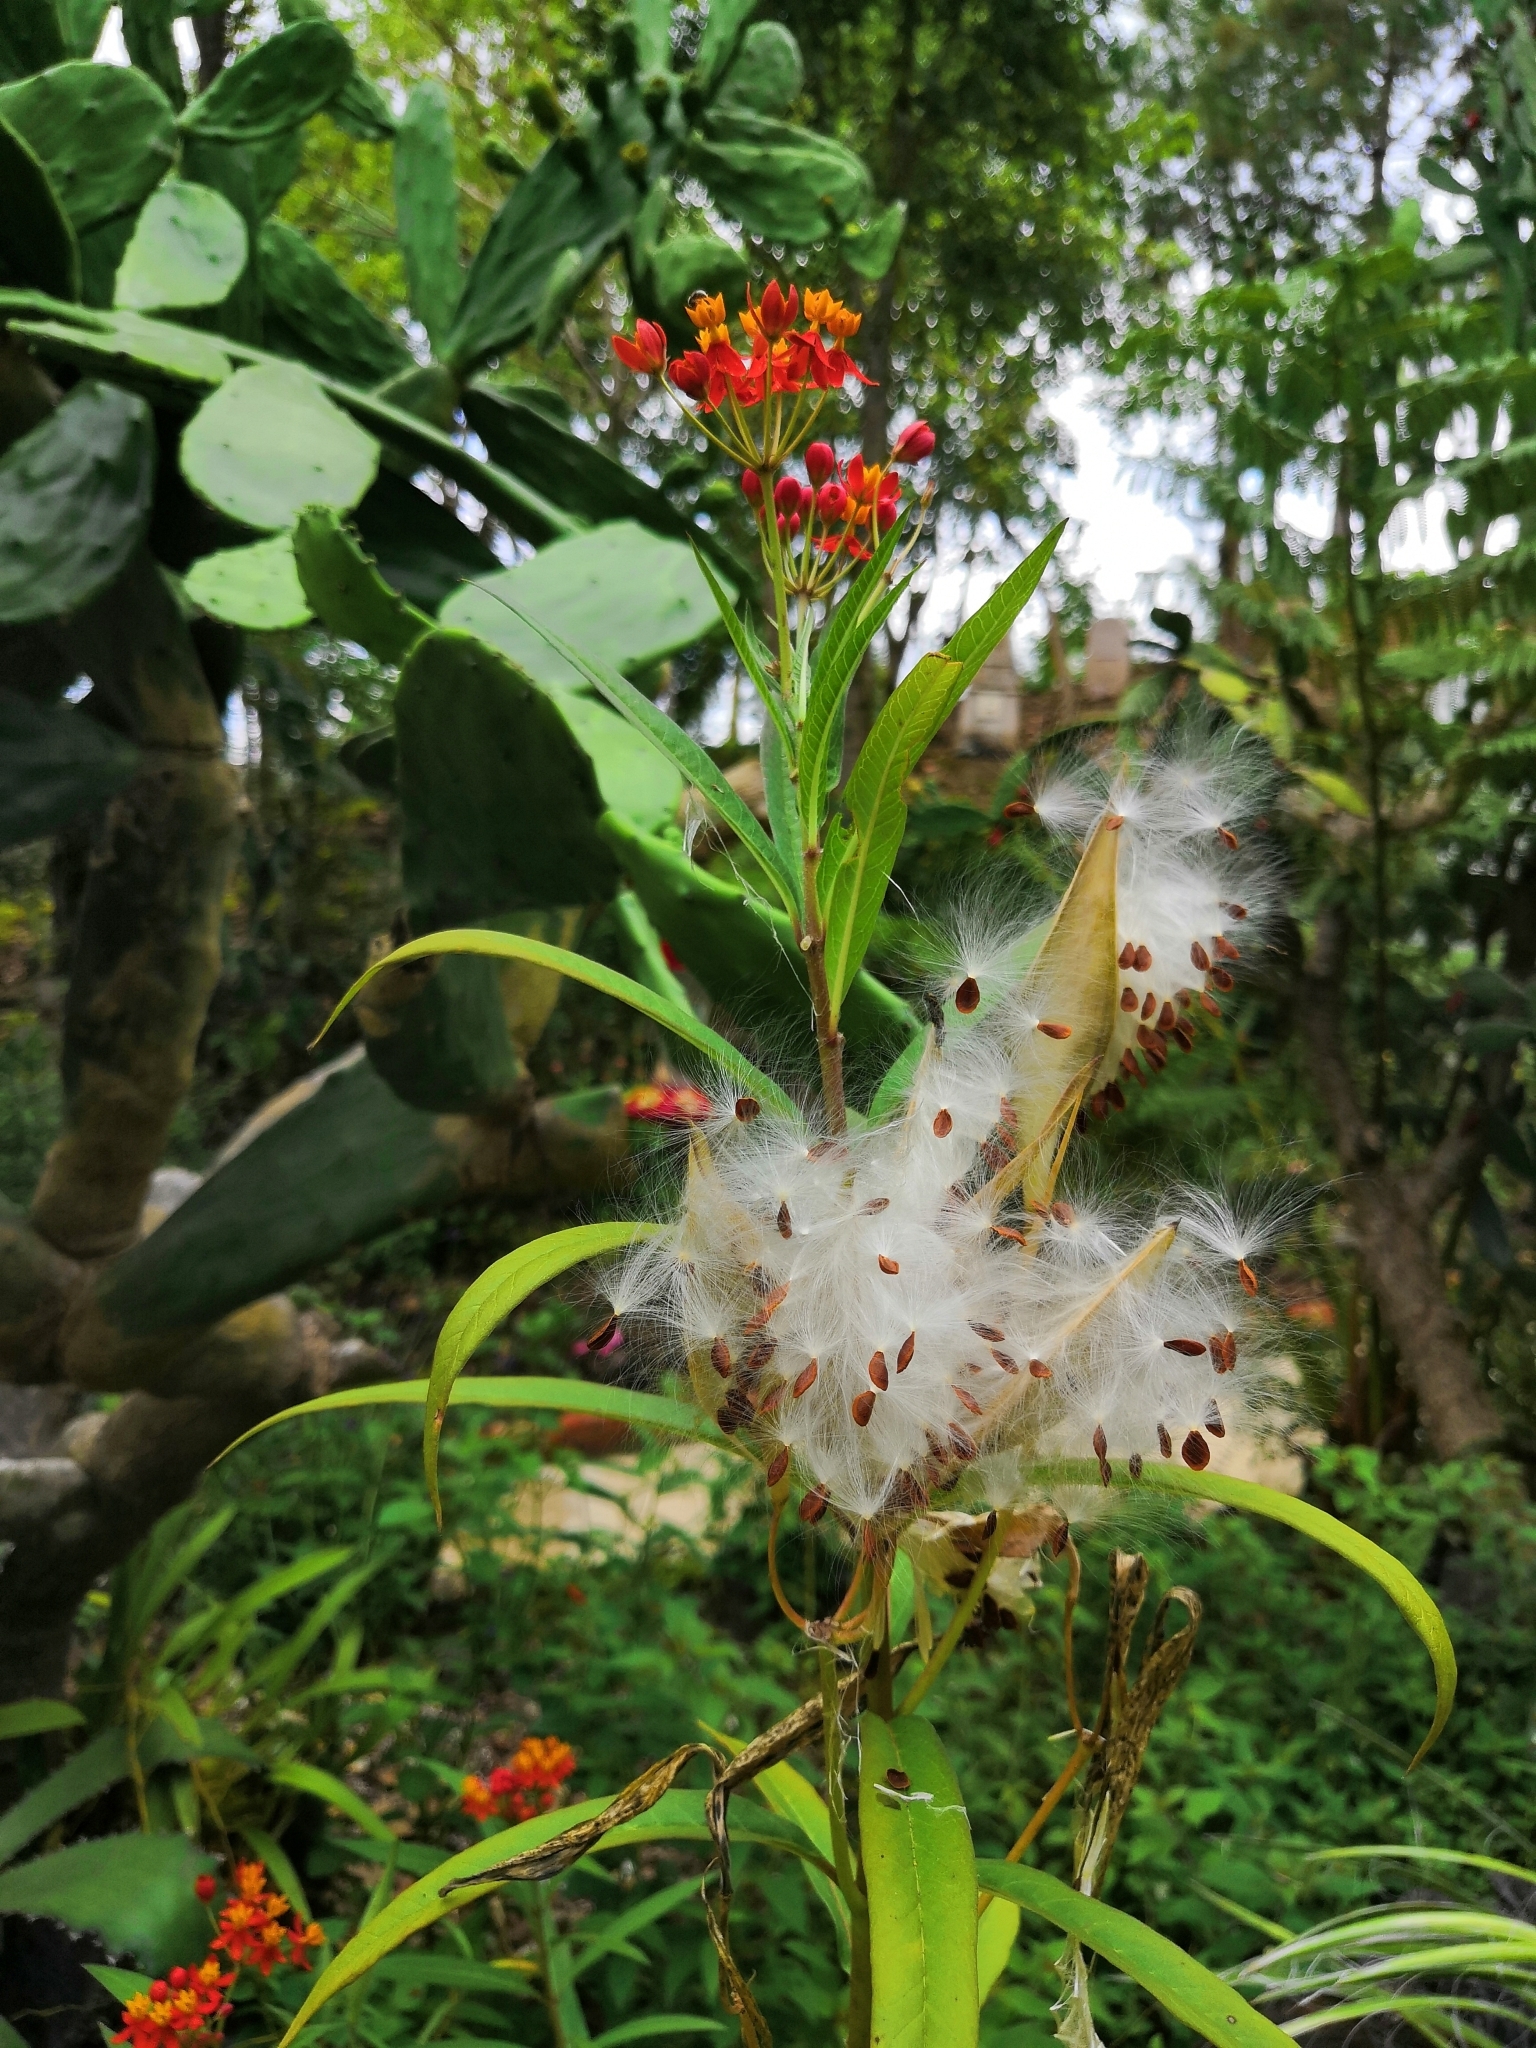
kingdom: Plantae
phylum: Tracheophyta
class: Magnoliopsida
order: Gentianales
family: Apocynaceae
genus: Asclepias
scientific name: Asclepias curassavica
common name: Bloodflower
